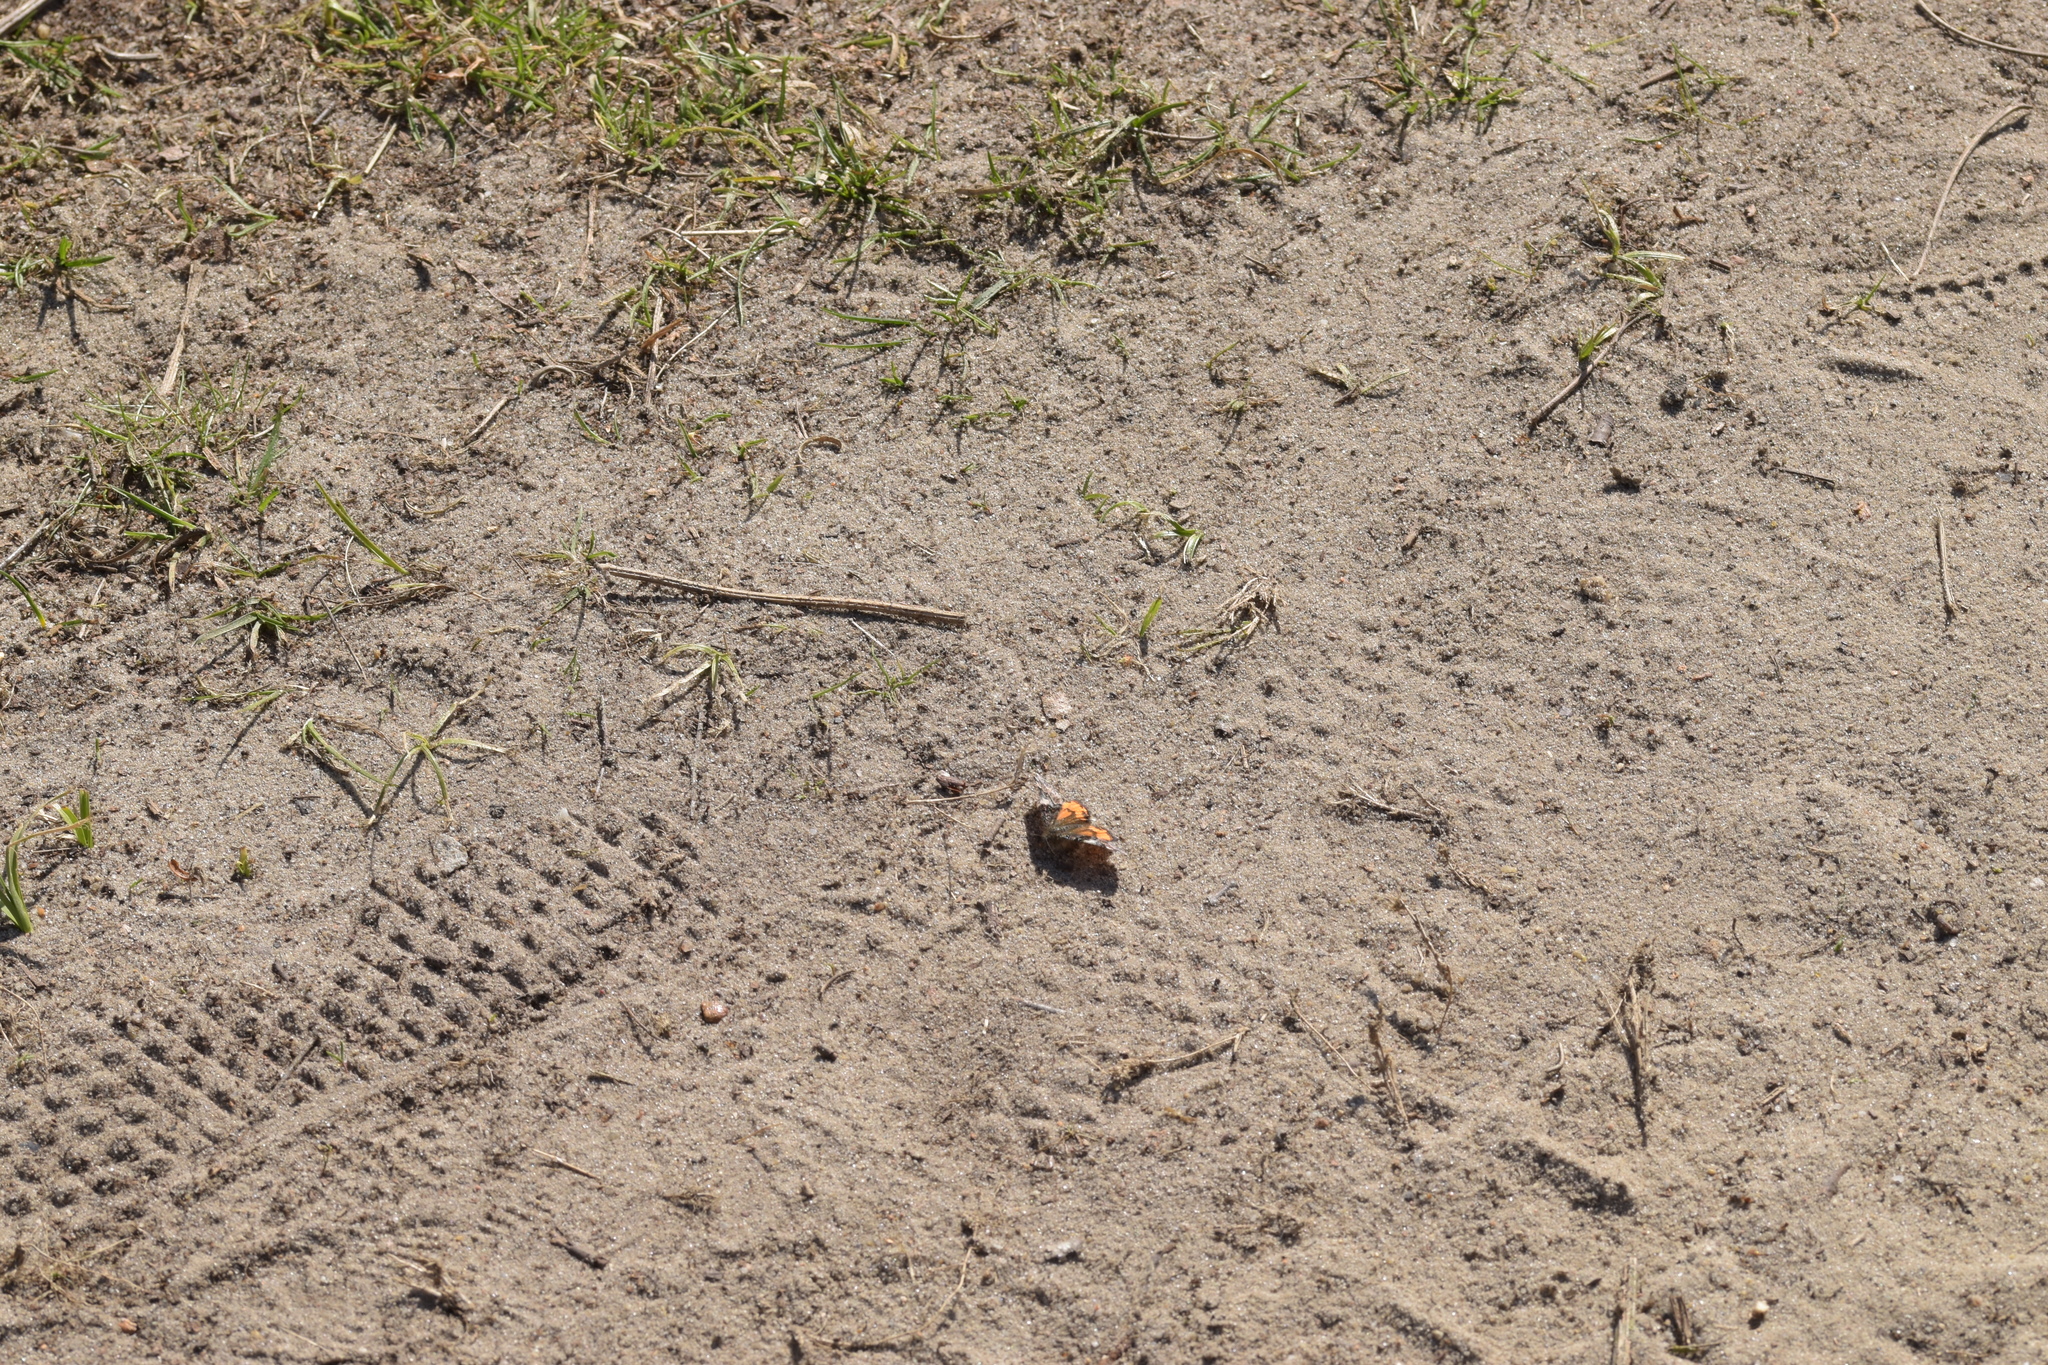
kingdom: Animalia
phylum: Arthropoda
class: Insecta
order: Lepidoptera
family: Geometridae
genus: Archiearis
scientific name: Archiearis parthenias
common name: Orange underwing
